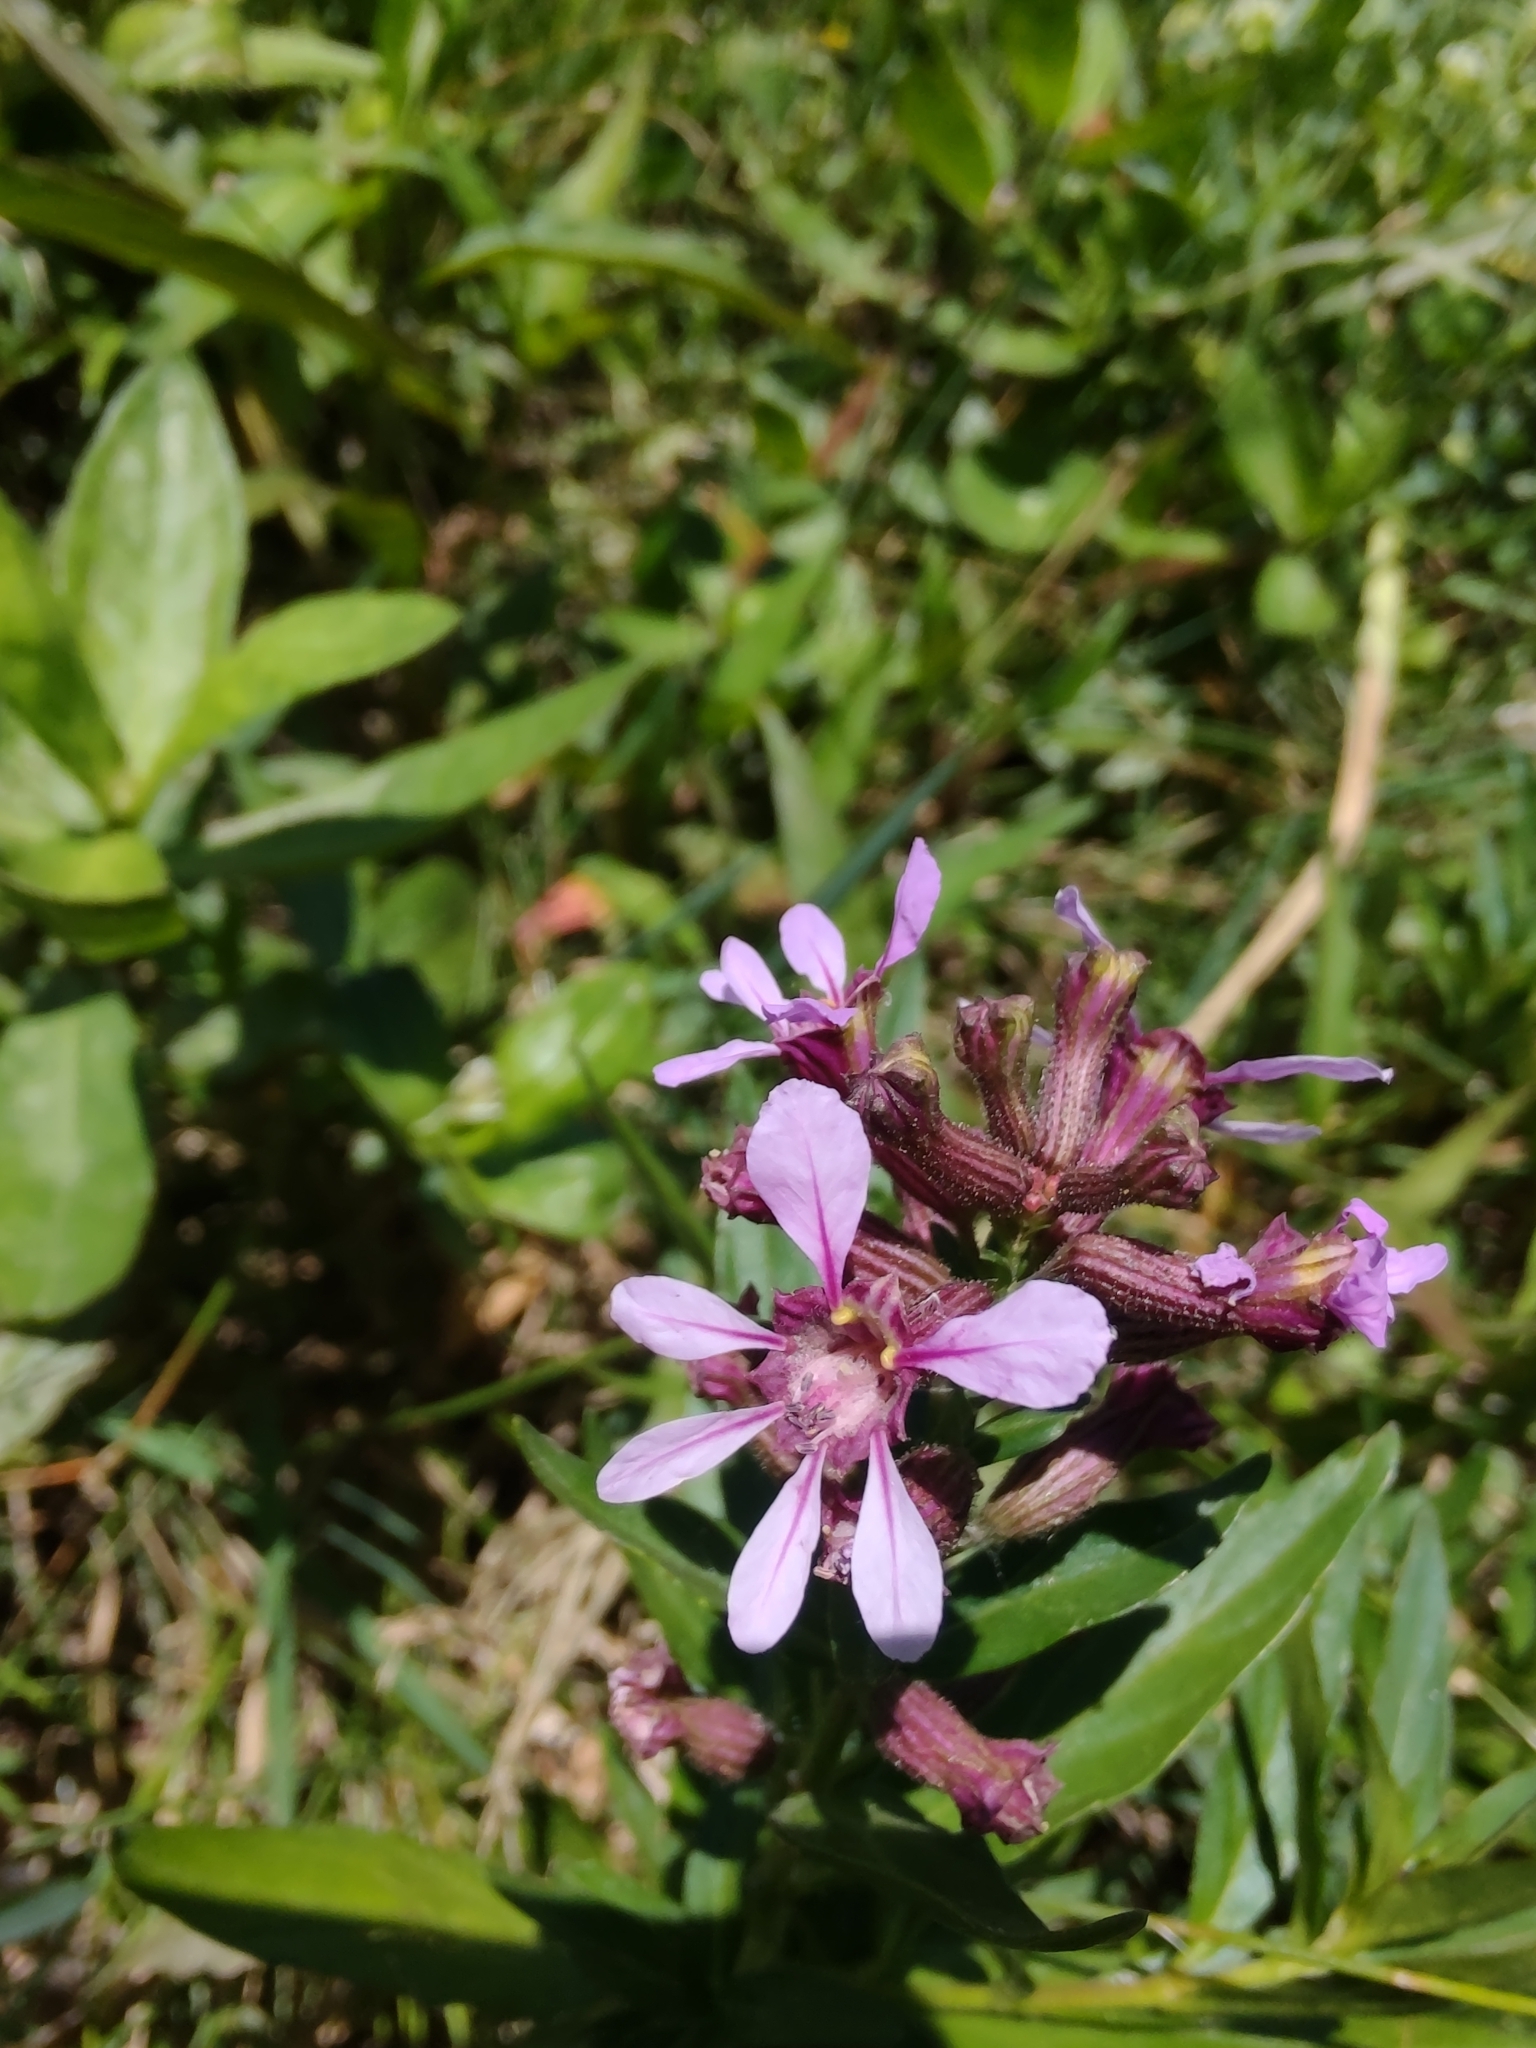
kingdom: Plantae
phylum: Tracheophyta
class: Magnoliopsida
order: Myrtales
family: Lythraceae
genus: Cuphea
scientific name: Cuphea fruticosa
